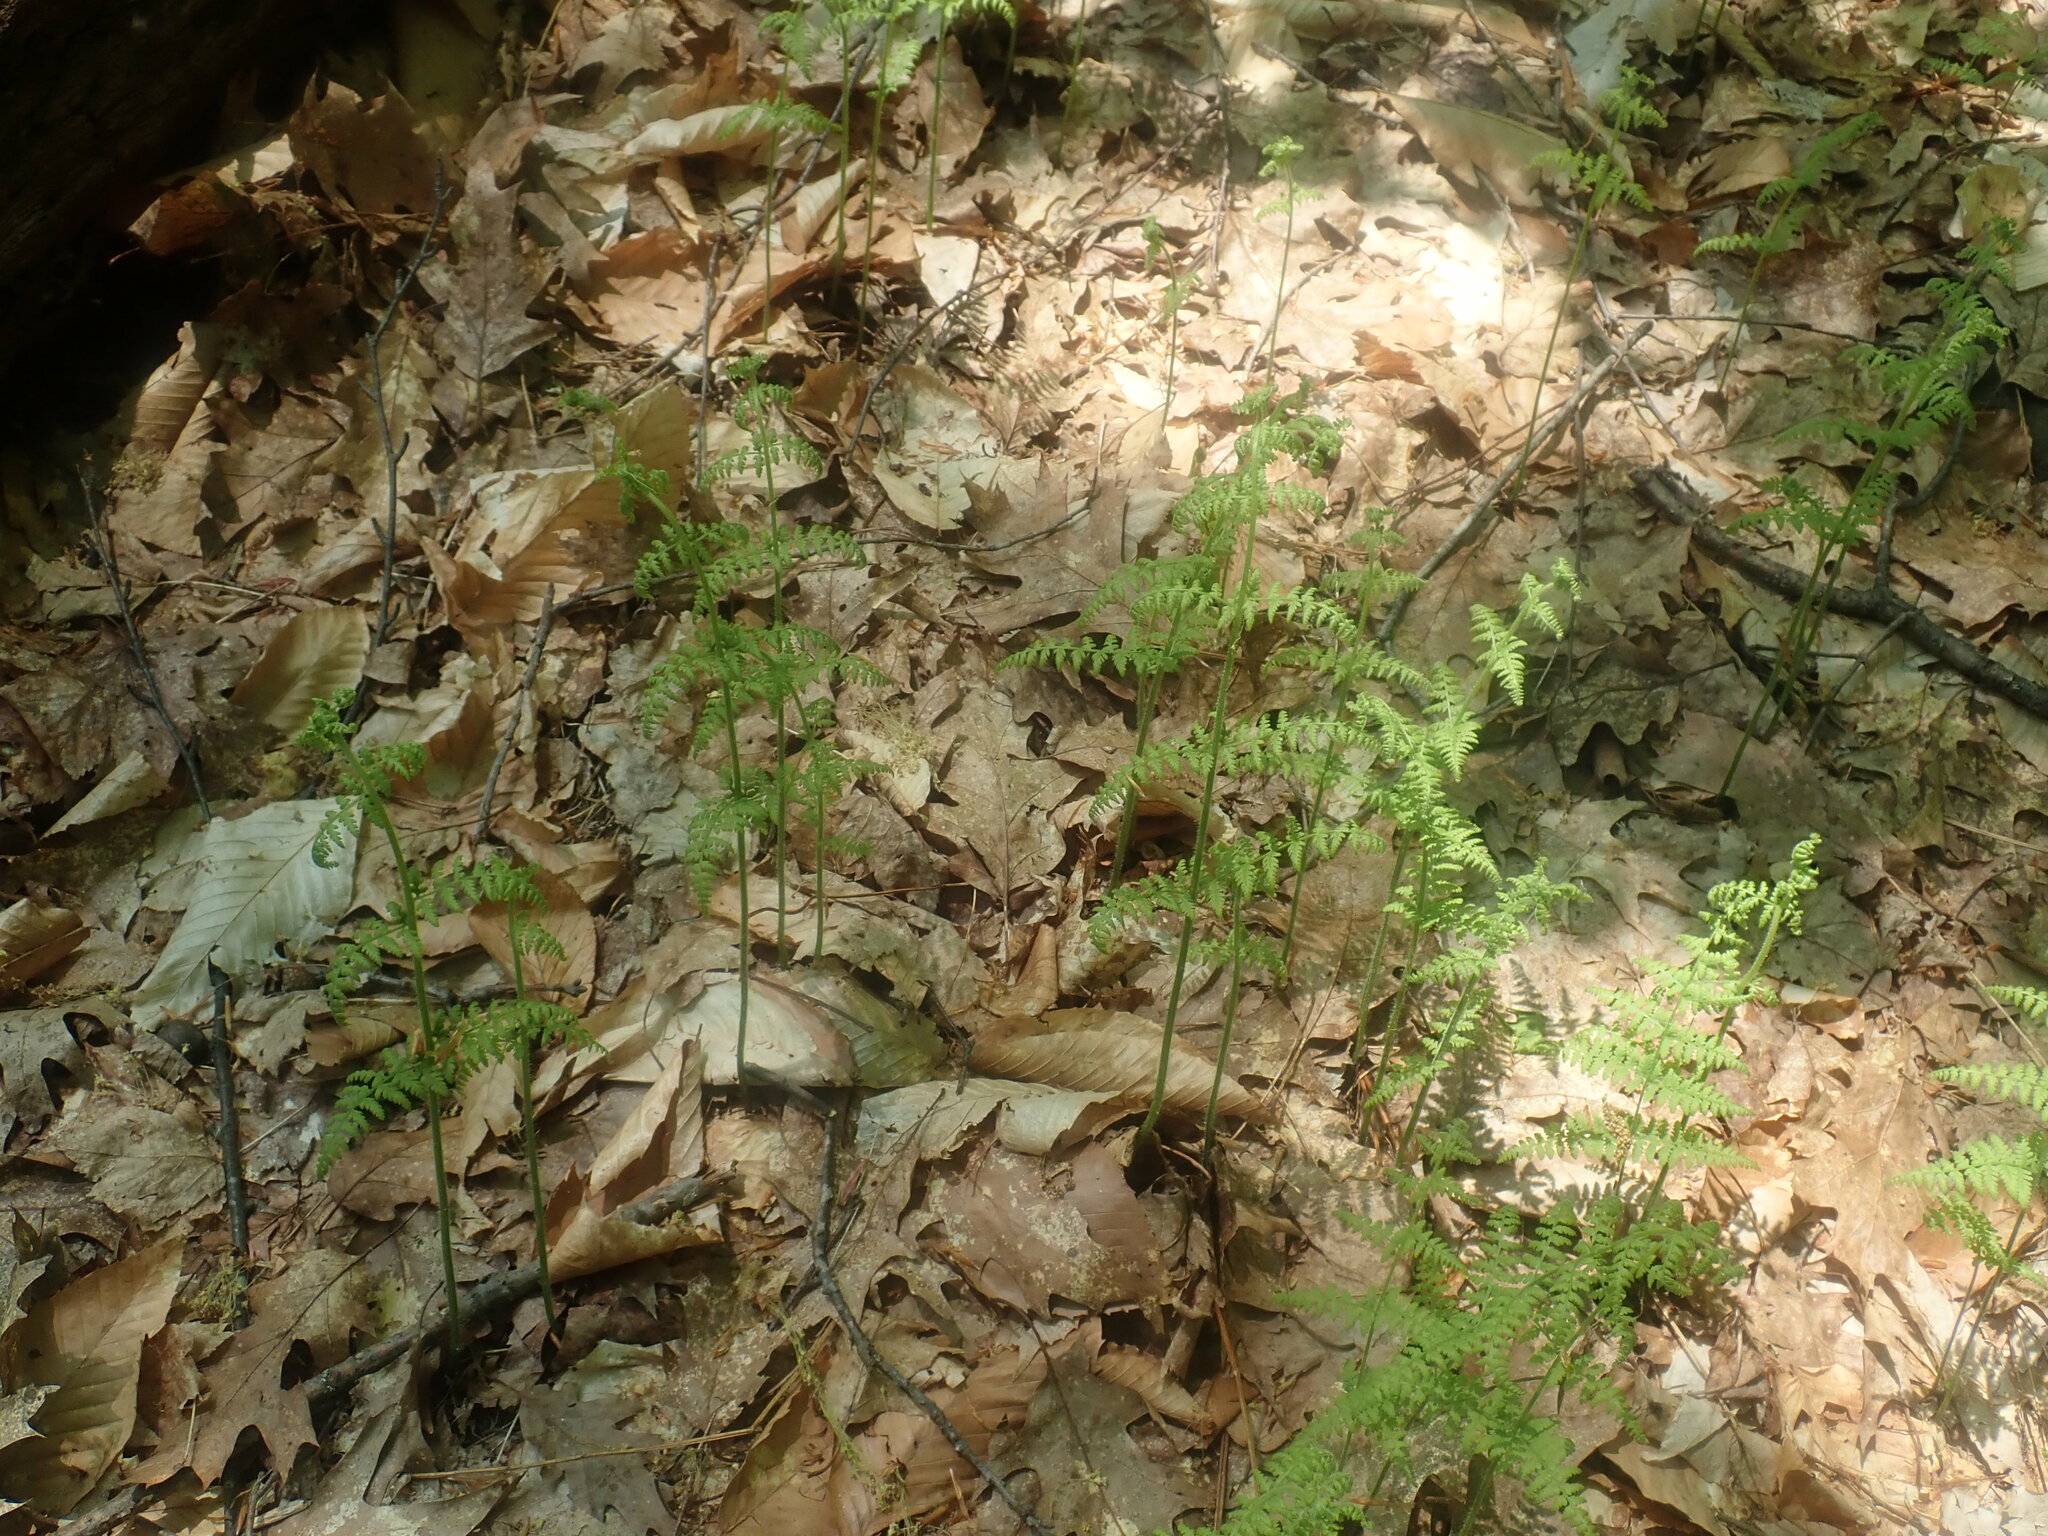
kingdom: Plantae
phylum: Tracheophyta
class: Polypodiopsida
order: Polypodiales
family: Dennstaedtiaceae
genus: Sitobolium
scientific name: Sitobolium punctilobum
